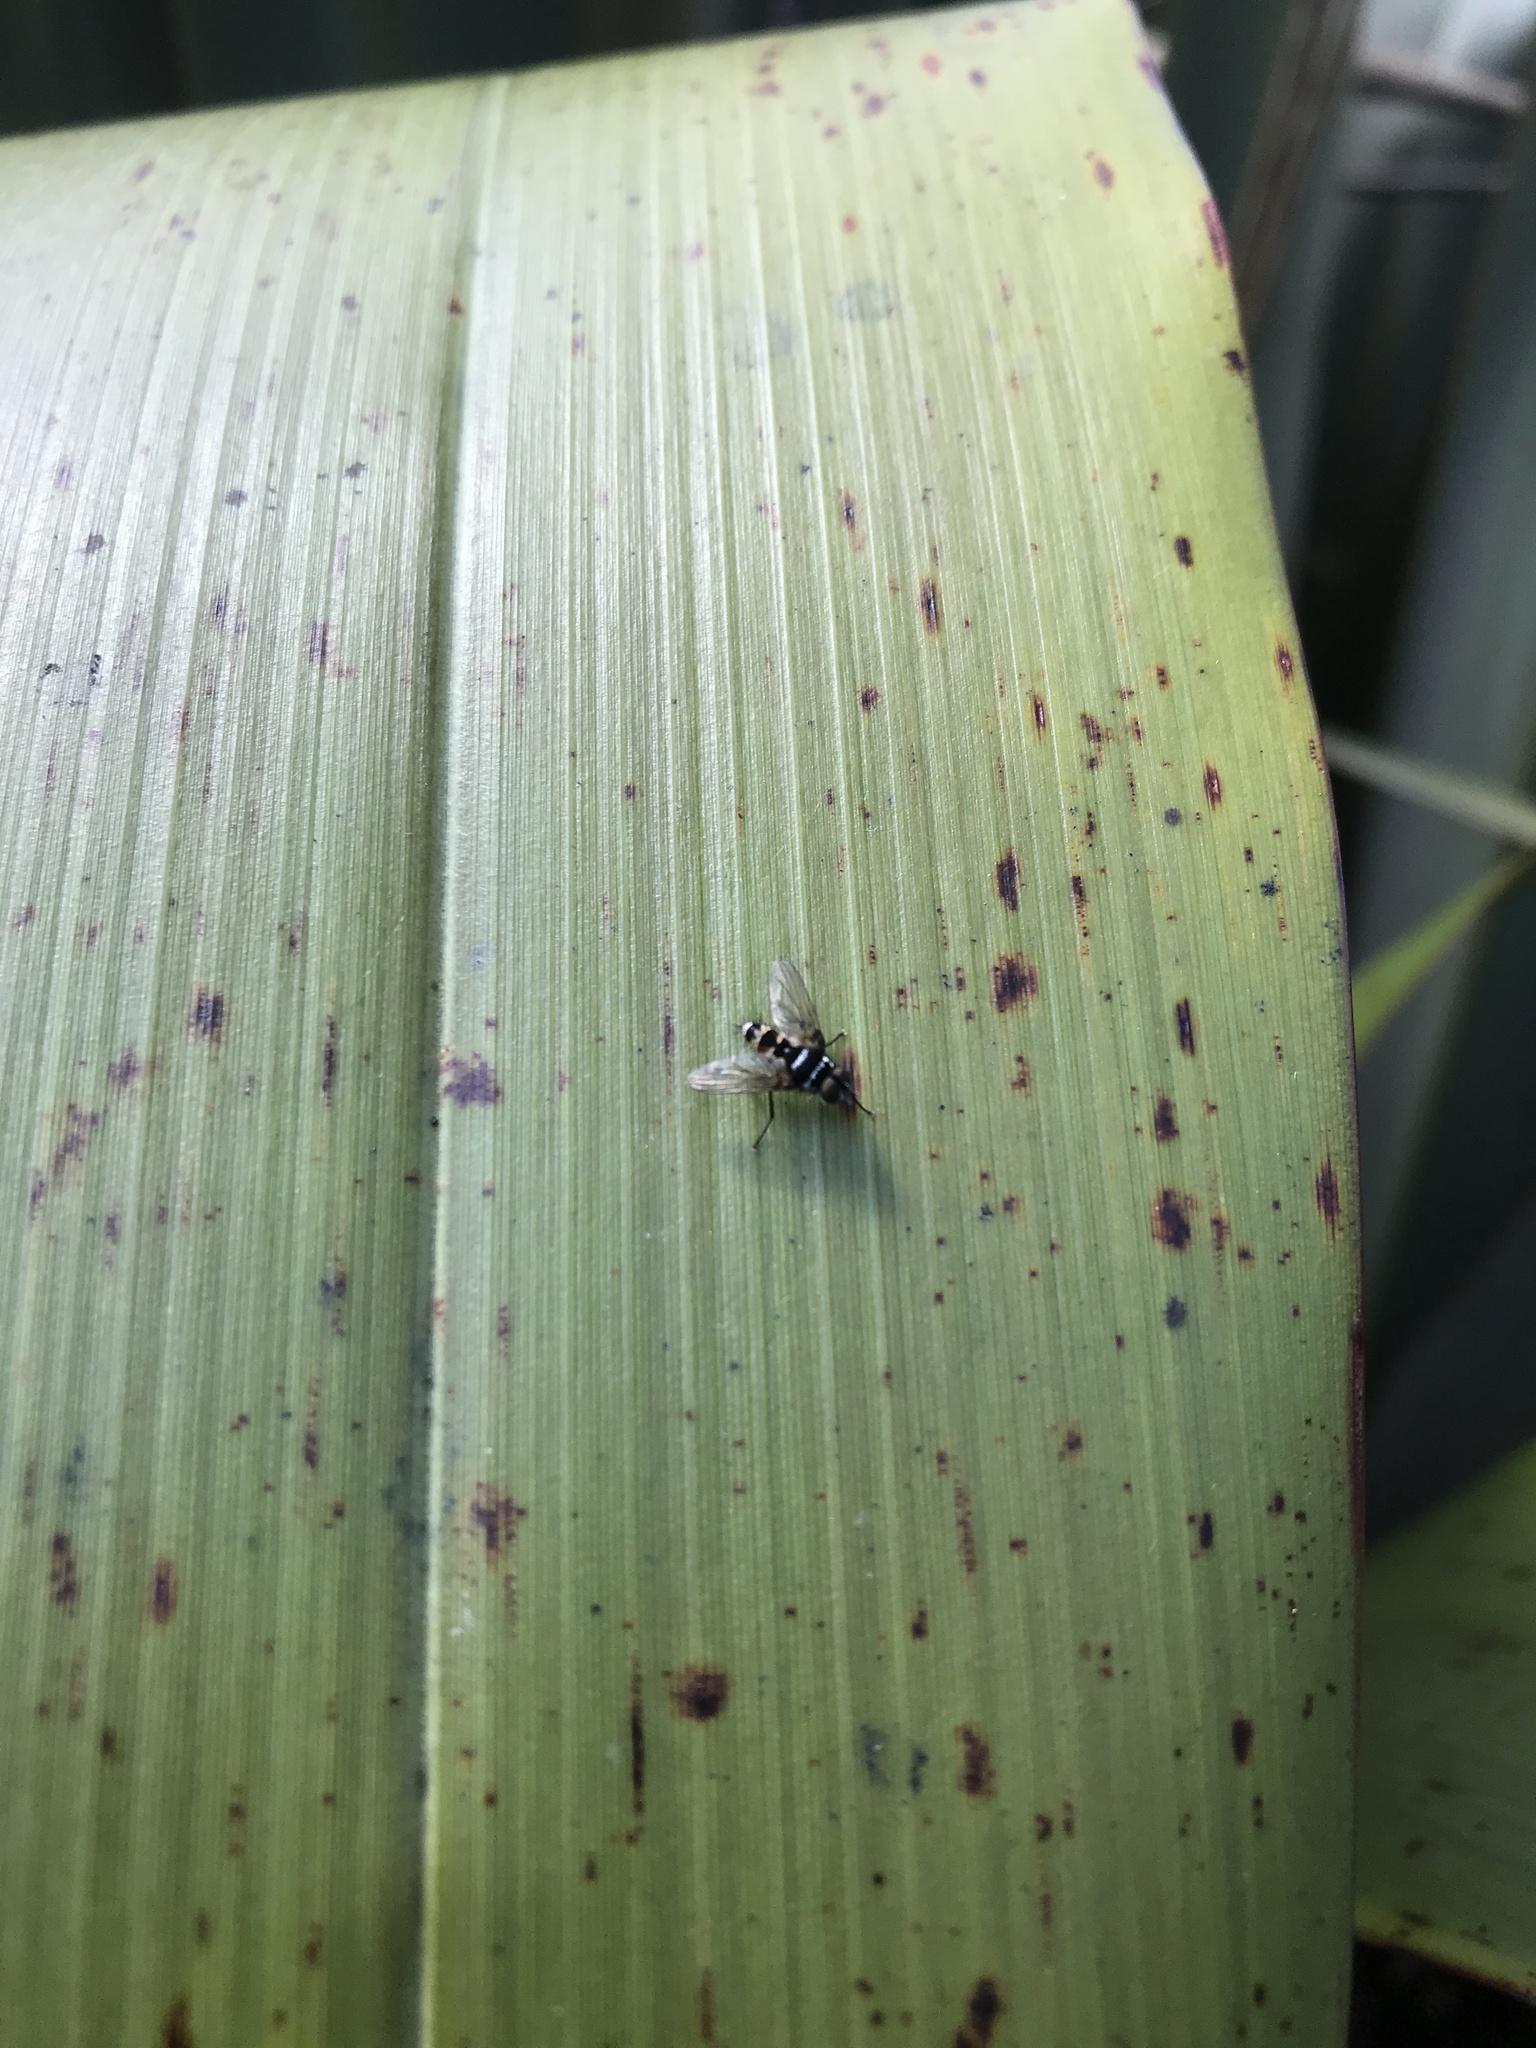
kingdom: Animalia
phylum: Arthropoda
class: Insecta
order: Diptera
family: Tachinidae
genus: Trigonospila
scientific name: Trigonospila brevifacies
